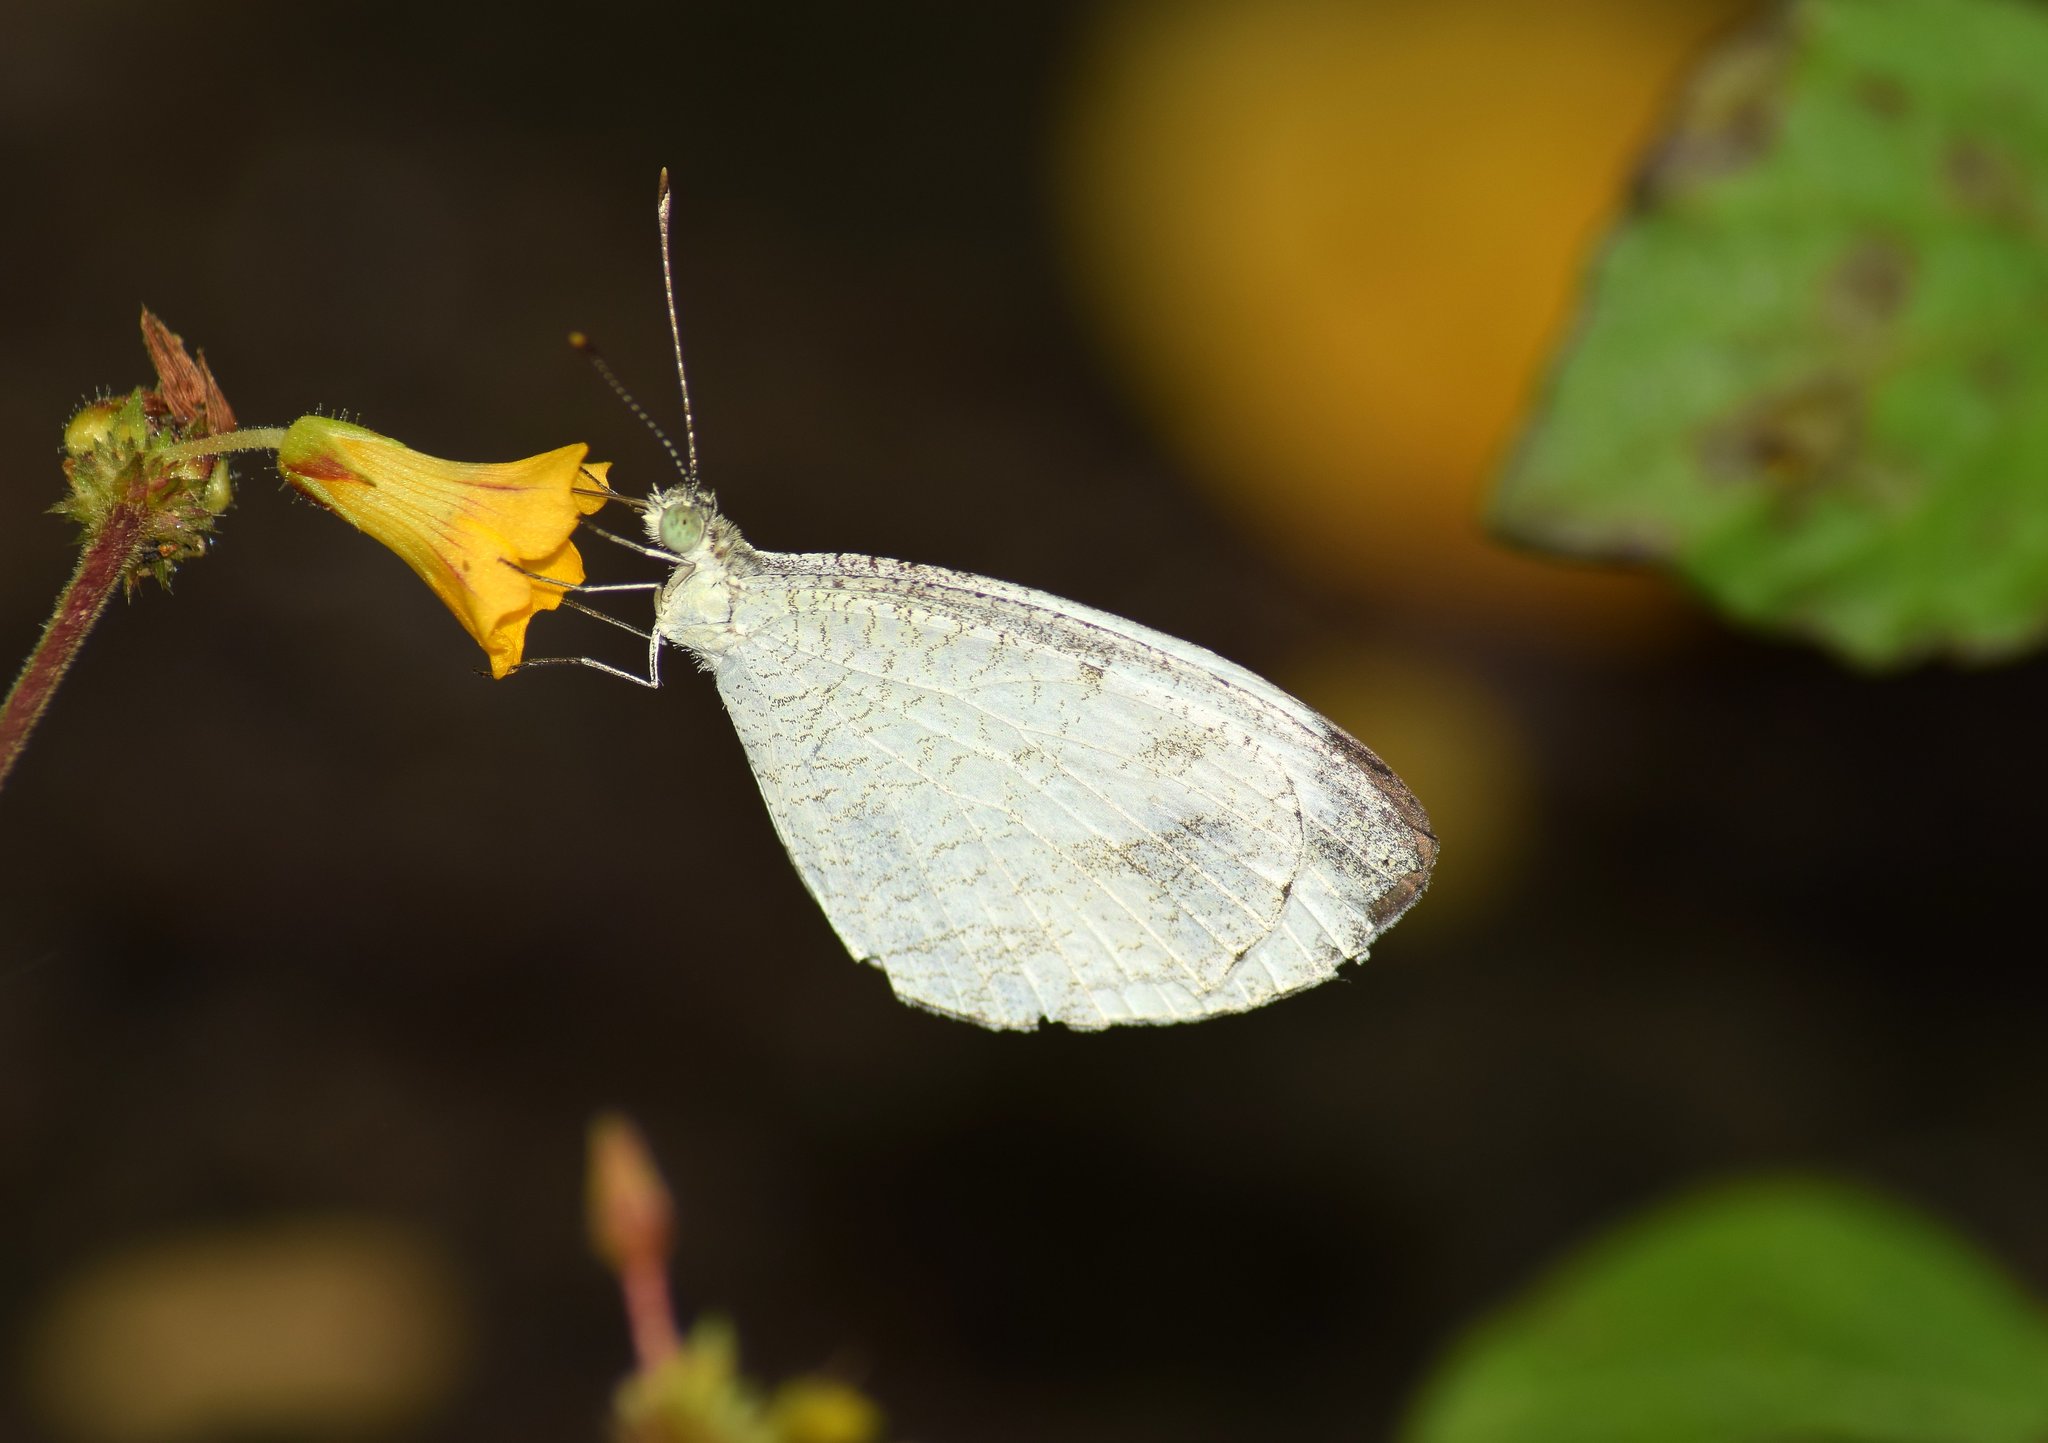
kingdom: Animalia
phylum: Arthropoda
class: Insecta
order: Lepidoptera
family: Pieridae
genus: Leptosia
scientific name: Leptosia nina
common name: Psyche
